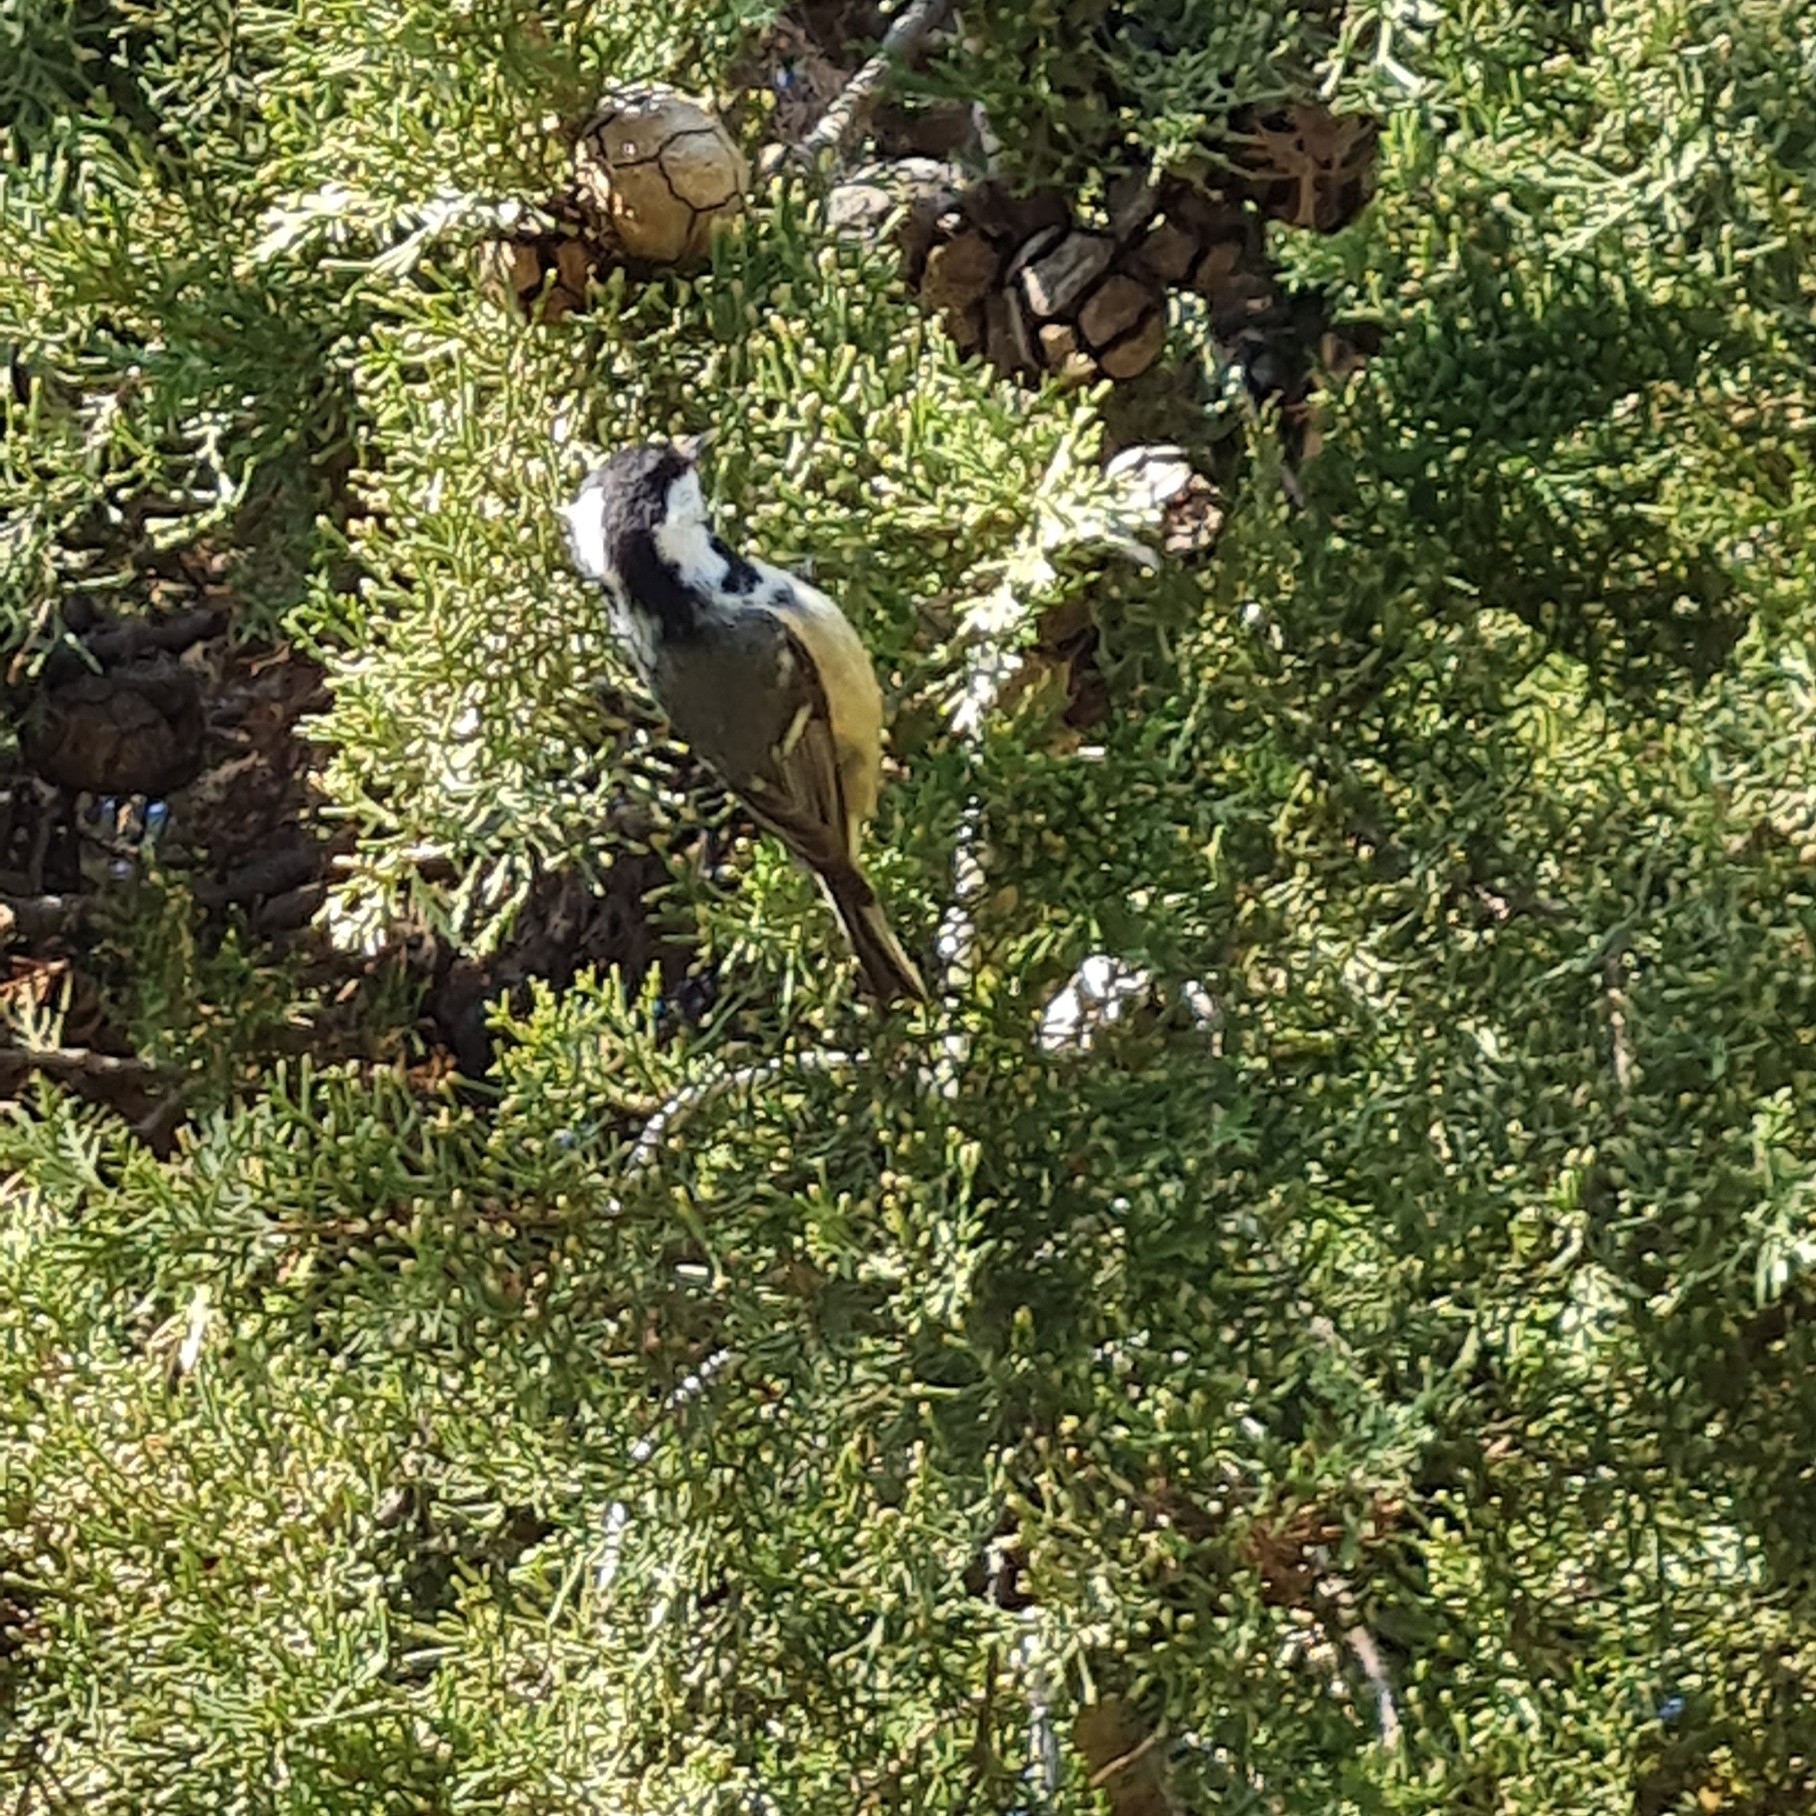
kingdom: Animalia
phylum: Chordata
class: Aves
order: Passeriformes
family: Paridae
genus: Periparus
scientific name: Periparus ater
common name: Coal tit
